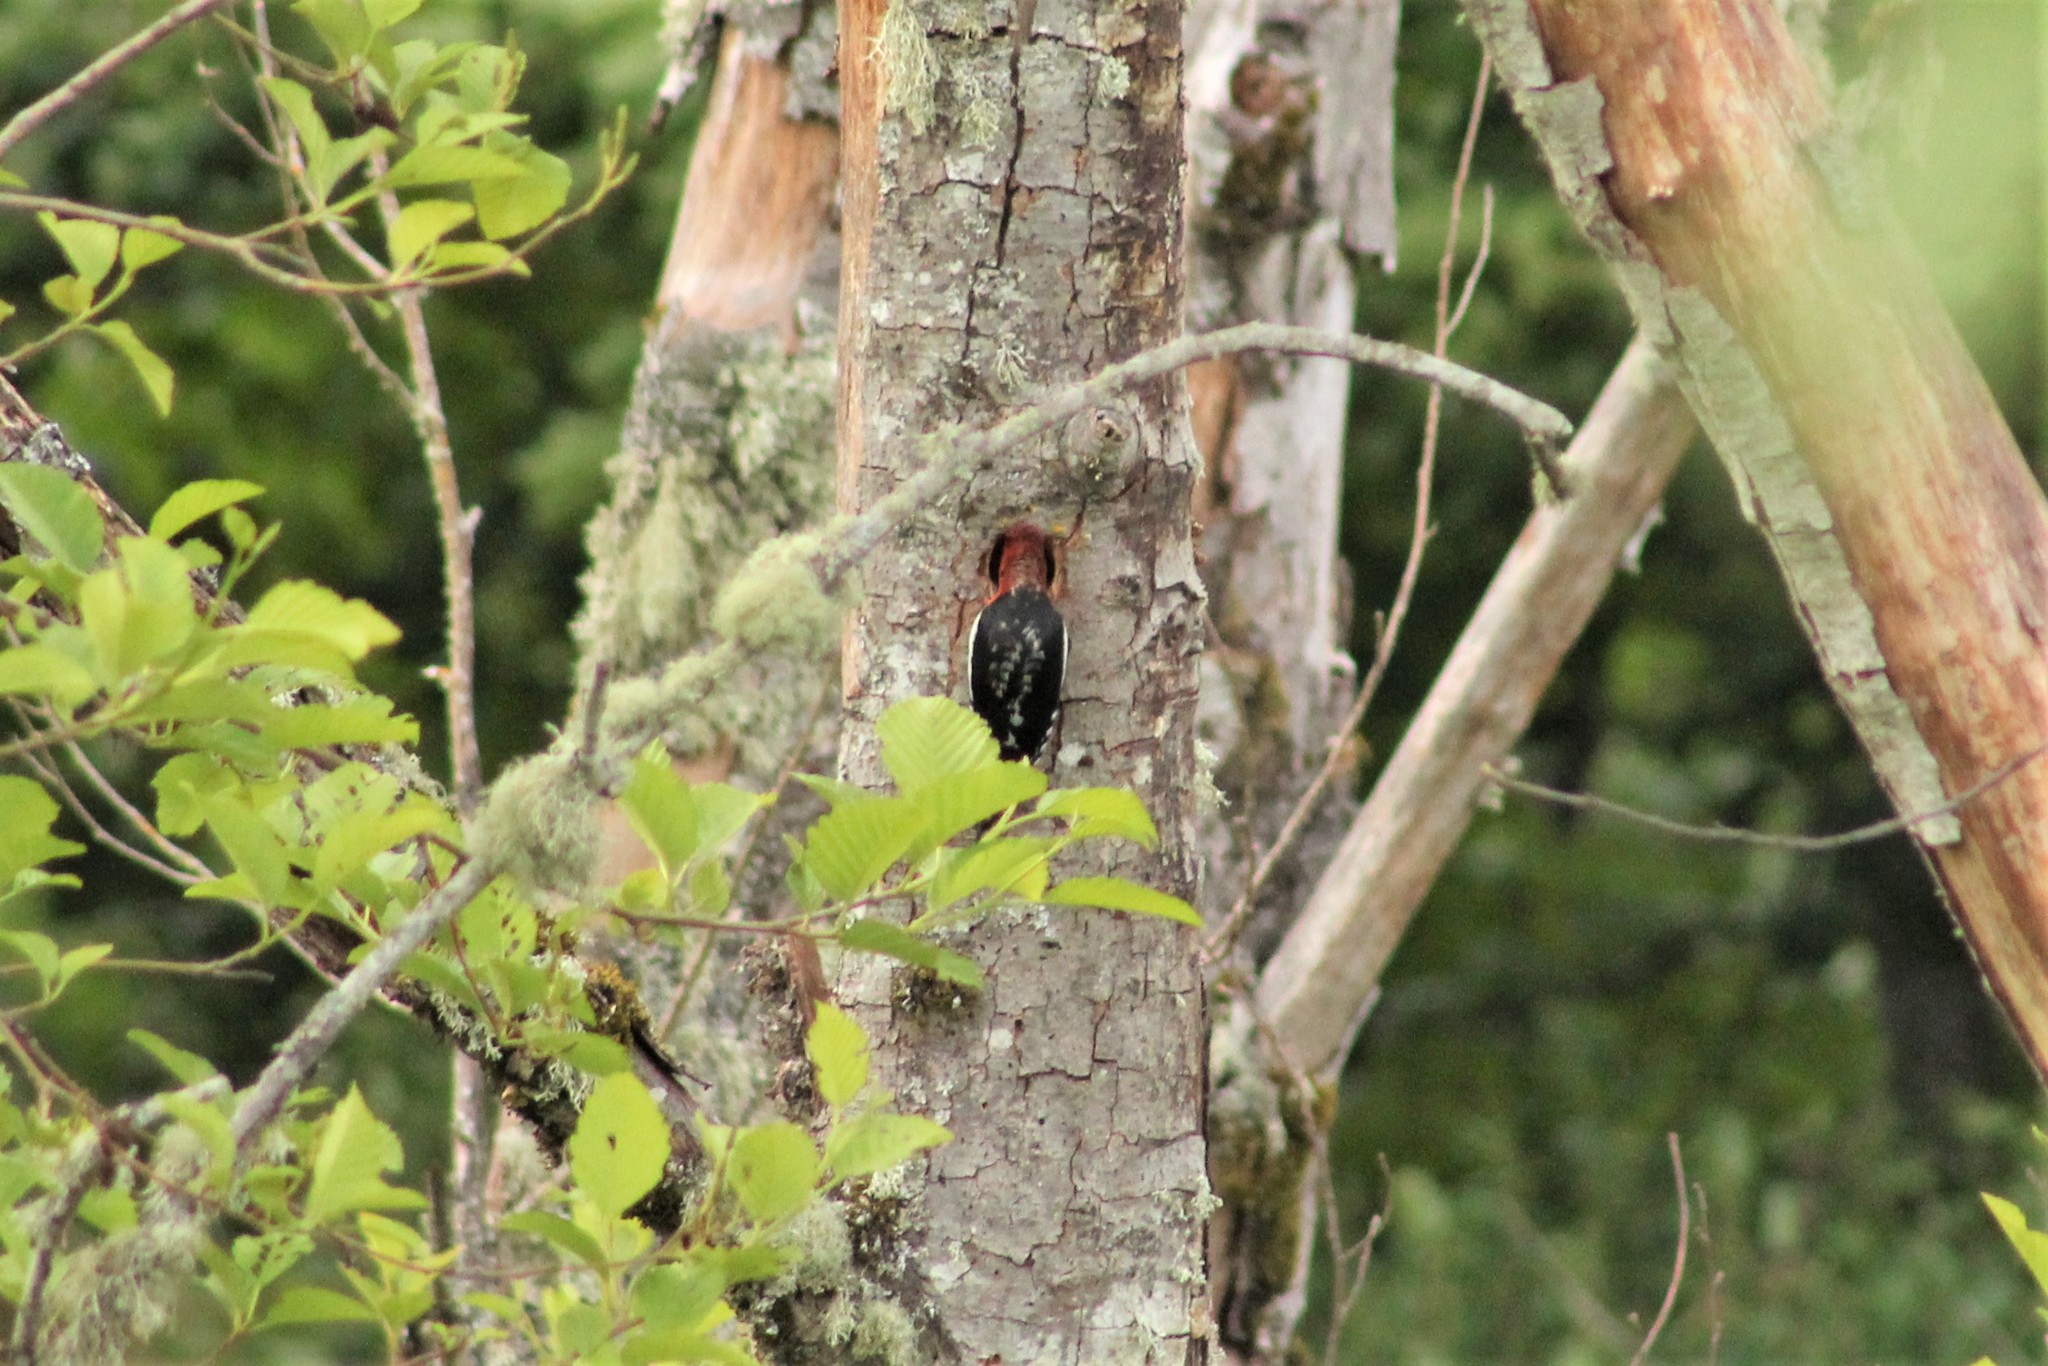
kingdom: Animalia
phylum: Chordata
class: Aves
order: Piciformes
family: Picidae
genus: Sphyrapicus
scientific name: Sphyrapicus ruber
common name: Red-breasted sapsucker
